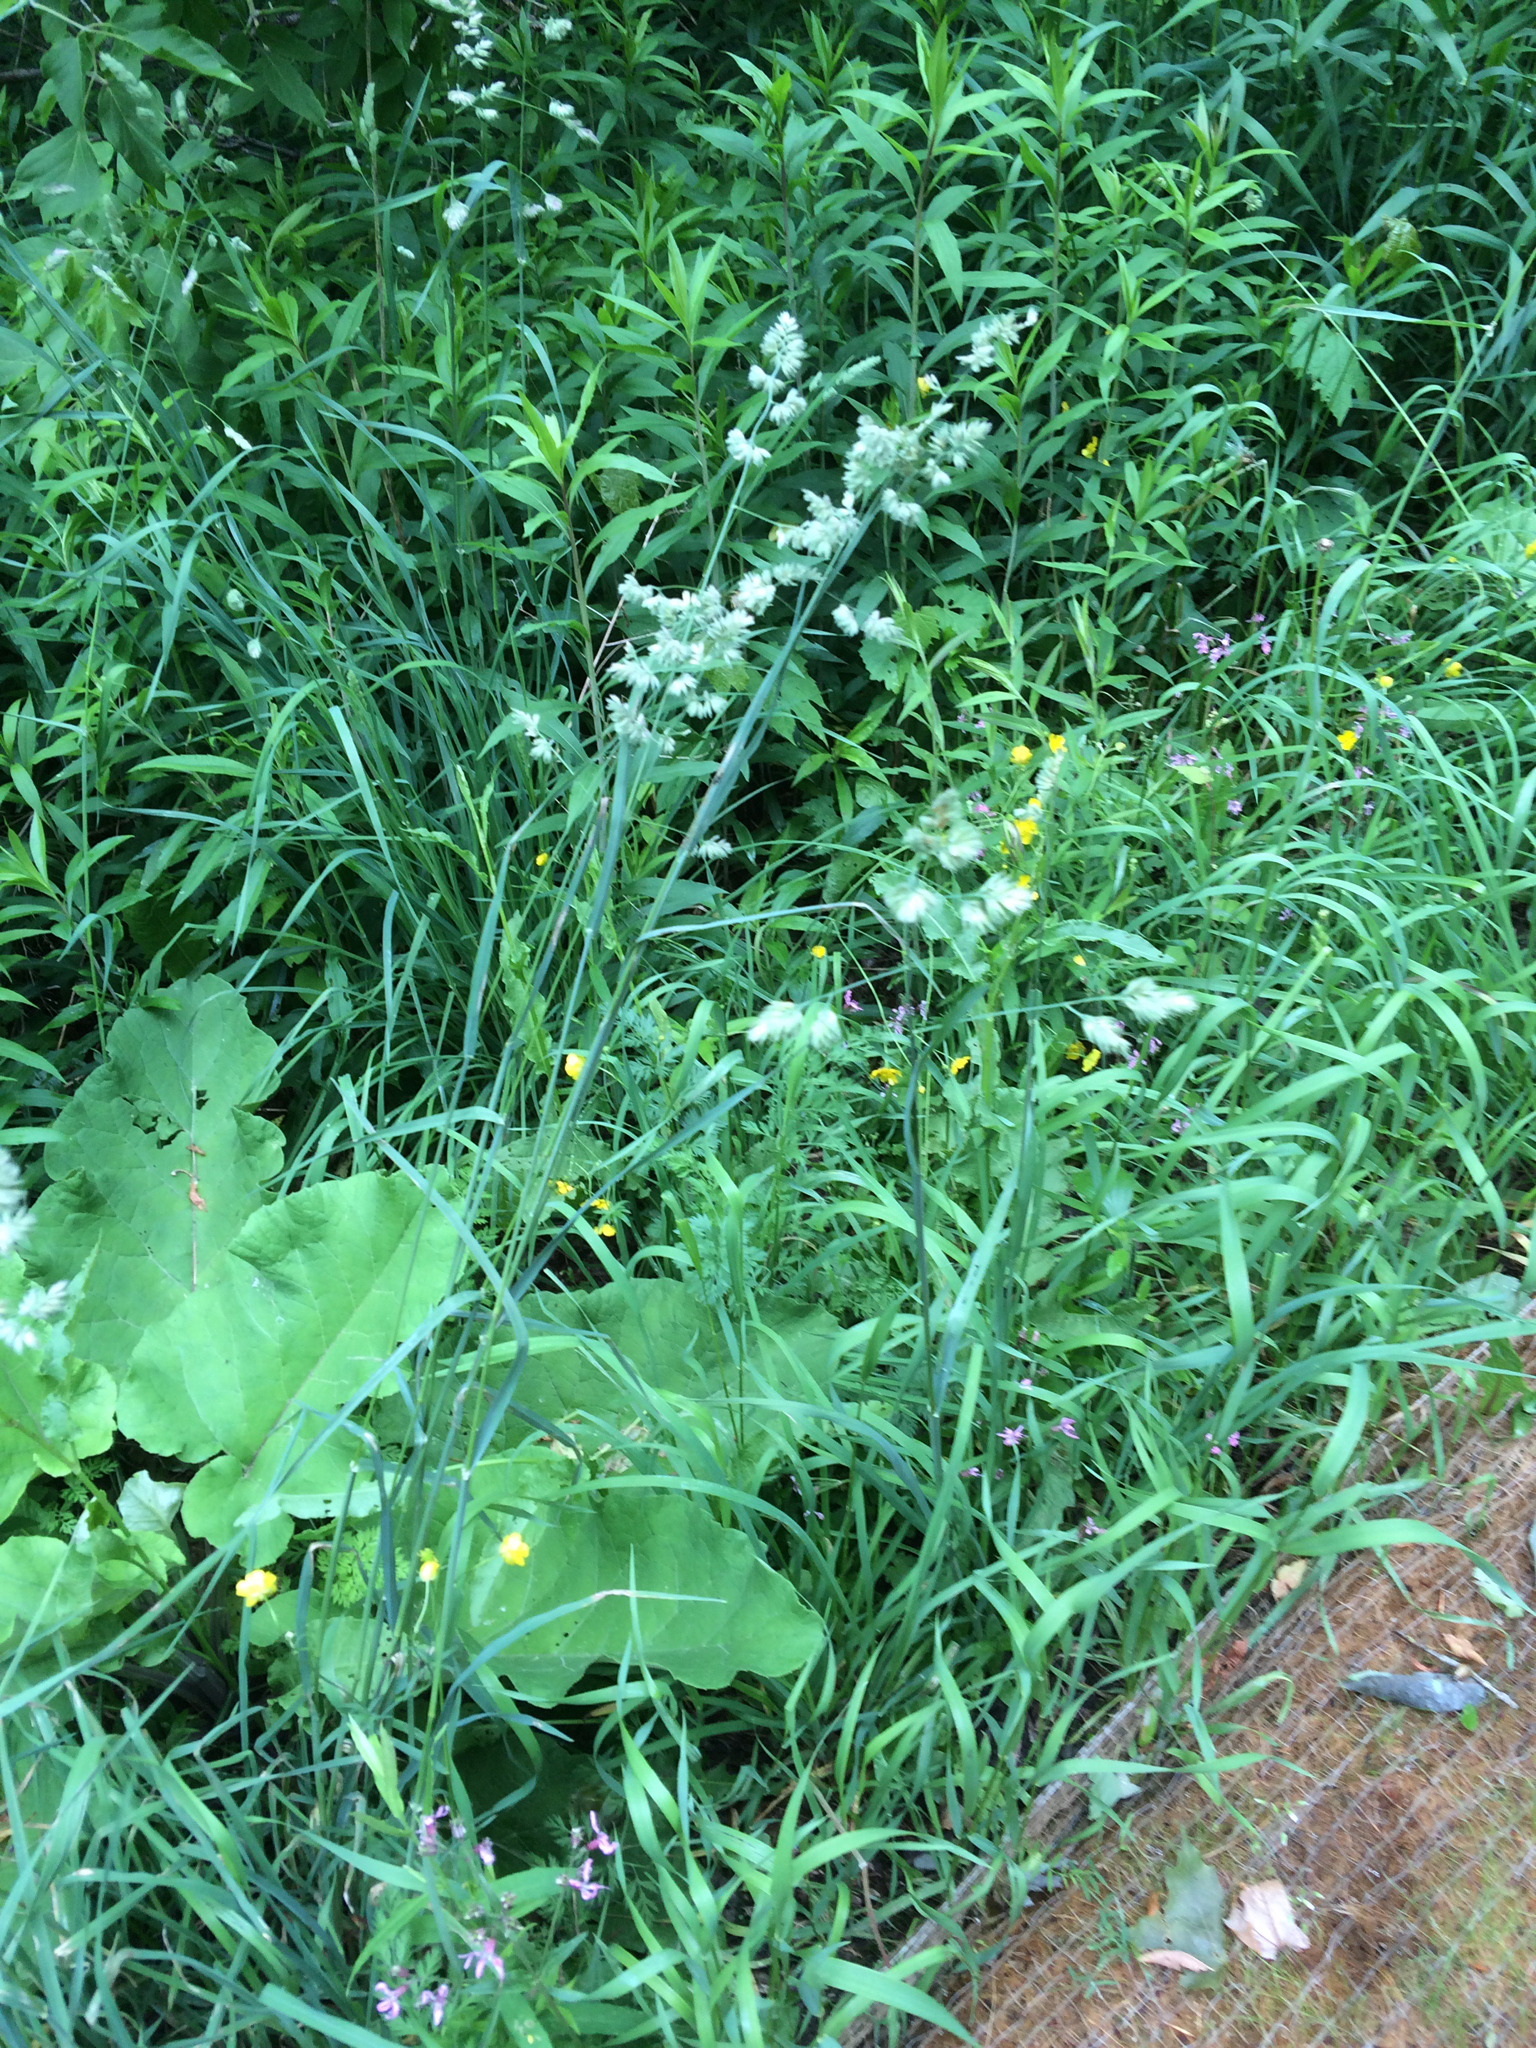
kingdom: Plantae
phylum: Tracheophyta
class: Liliopsida
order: Poales
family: Poaceae
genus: Dactylis
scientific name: Dactylis glomerata
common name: Orchardgrass
